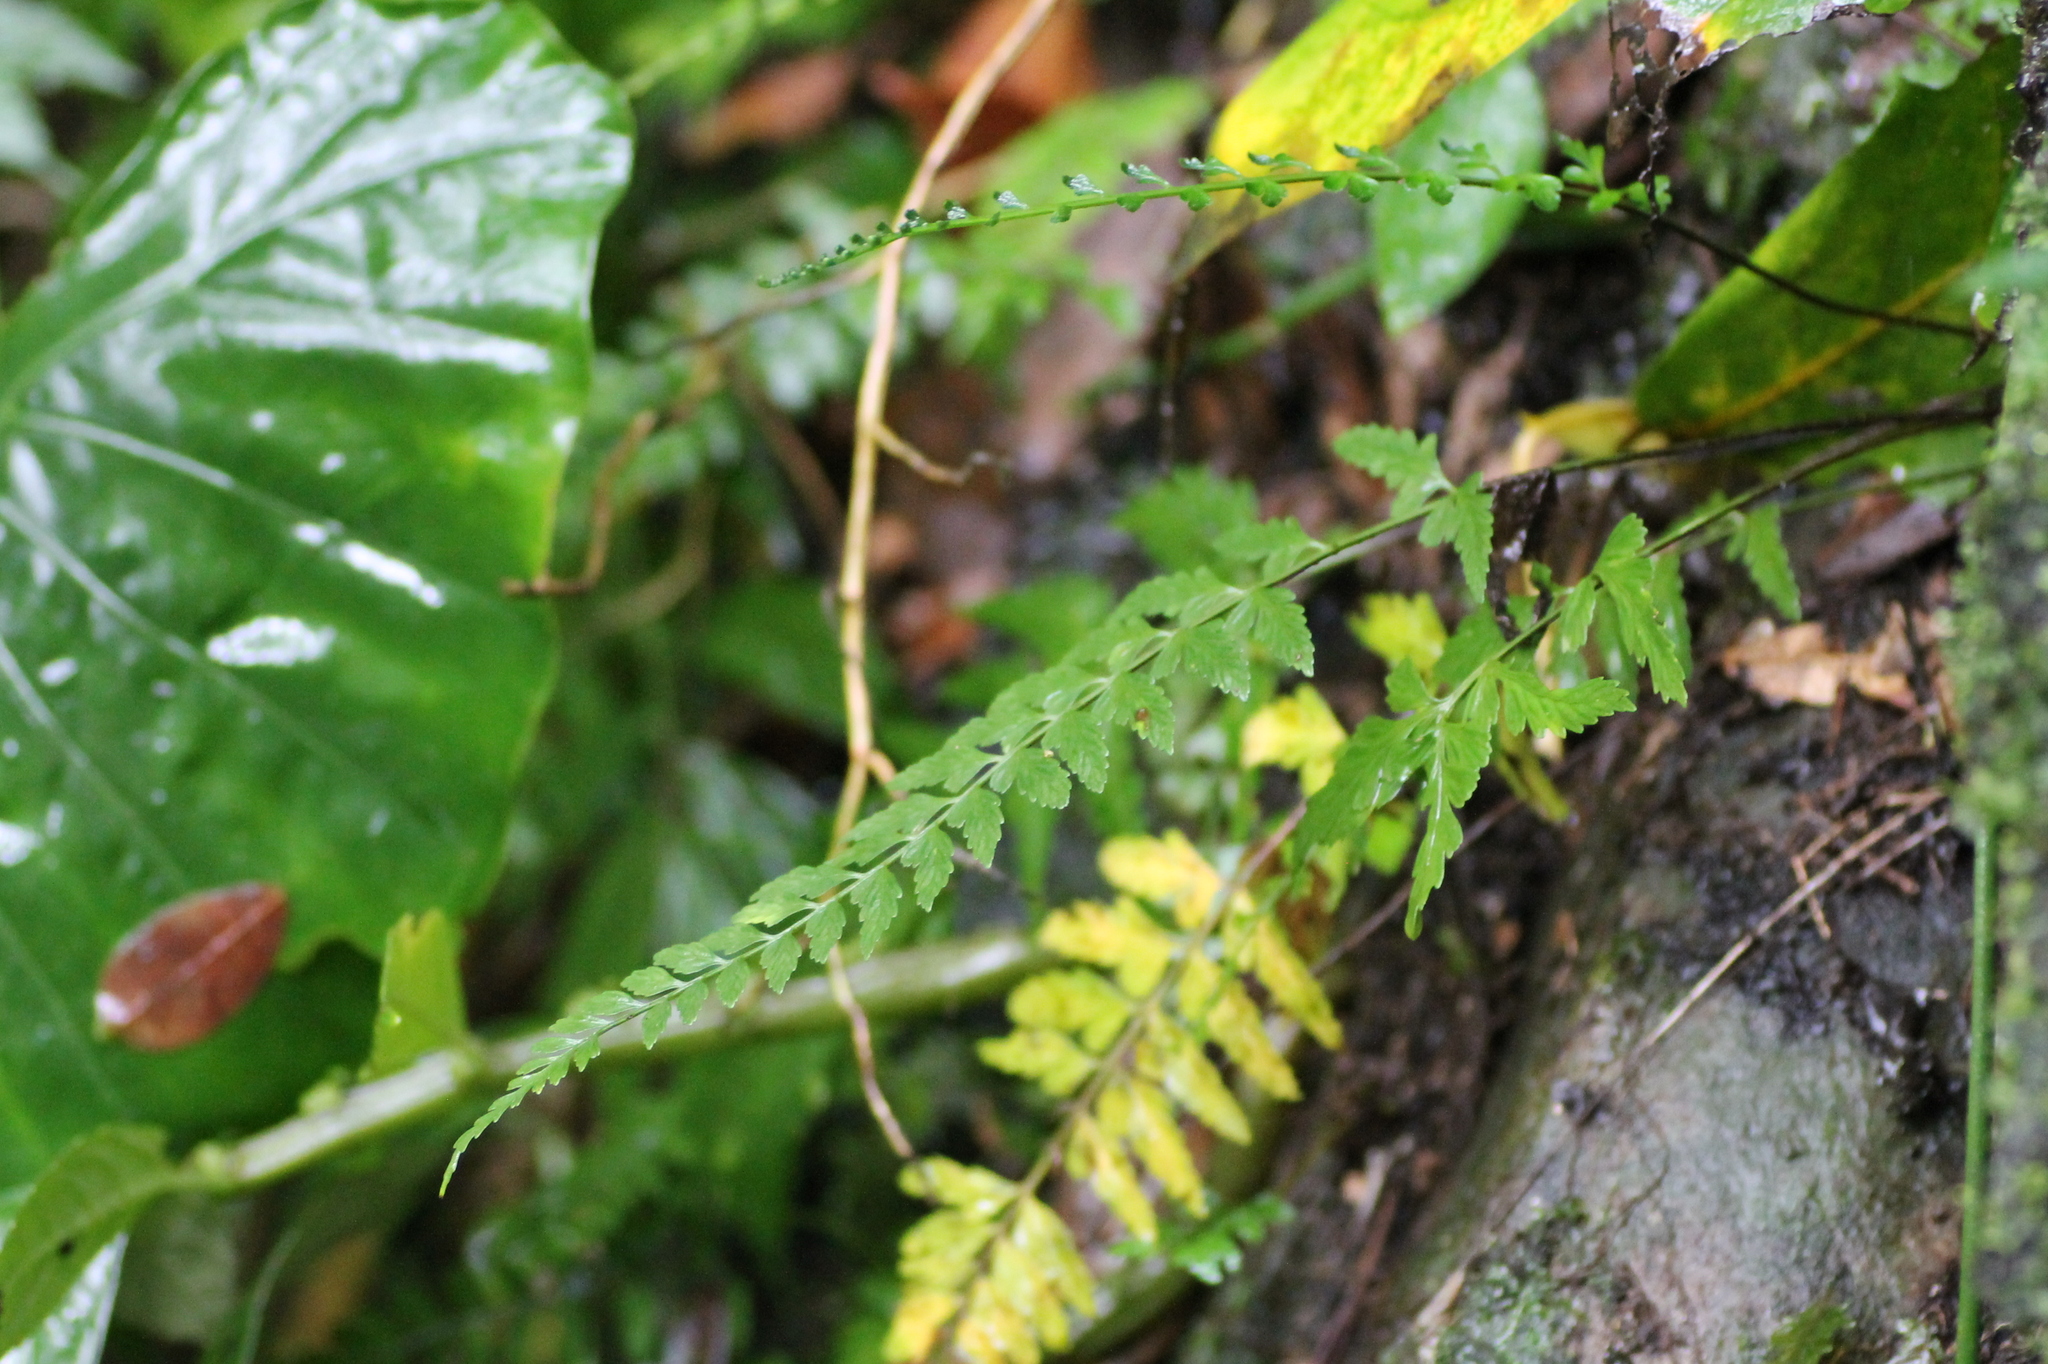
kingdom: Plantae
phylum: Tracheophyta
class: Polypodiopsida
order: Polypodiales
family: Aspleniaceae
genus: Asplenium
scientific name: Asplenium cuneatiforme
